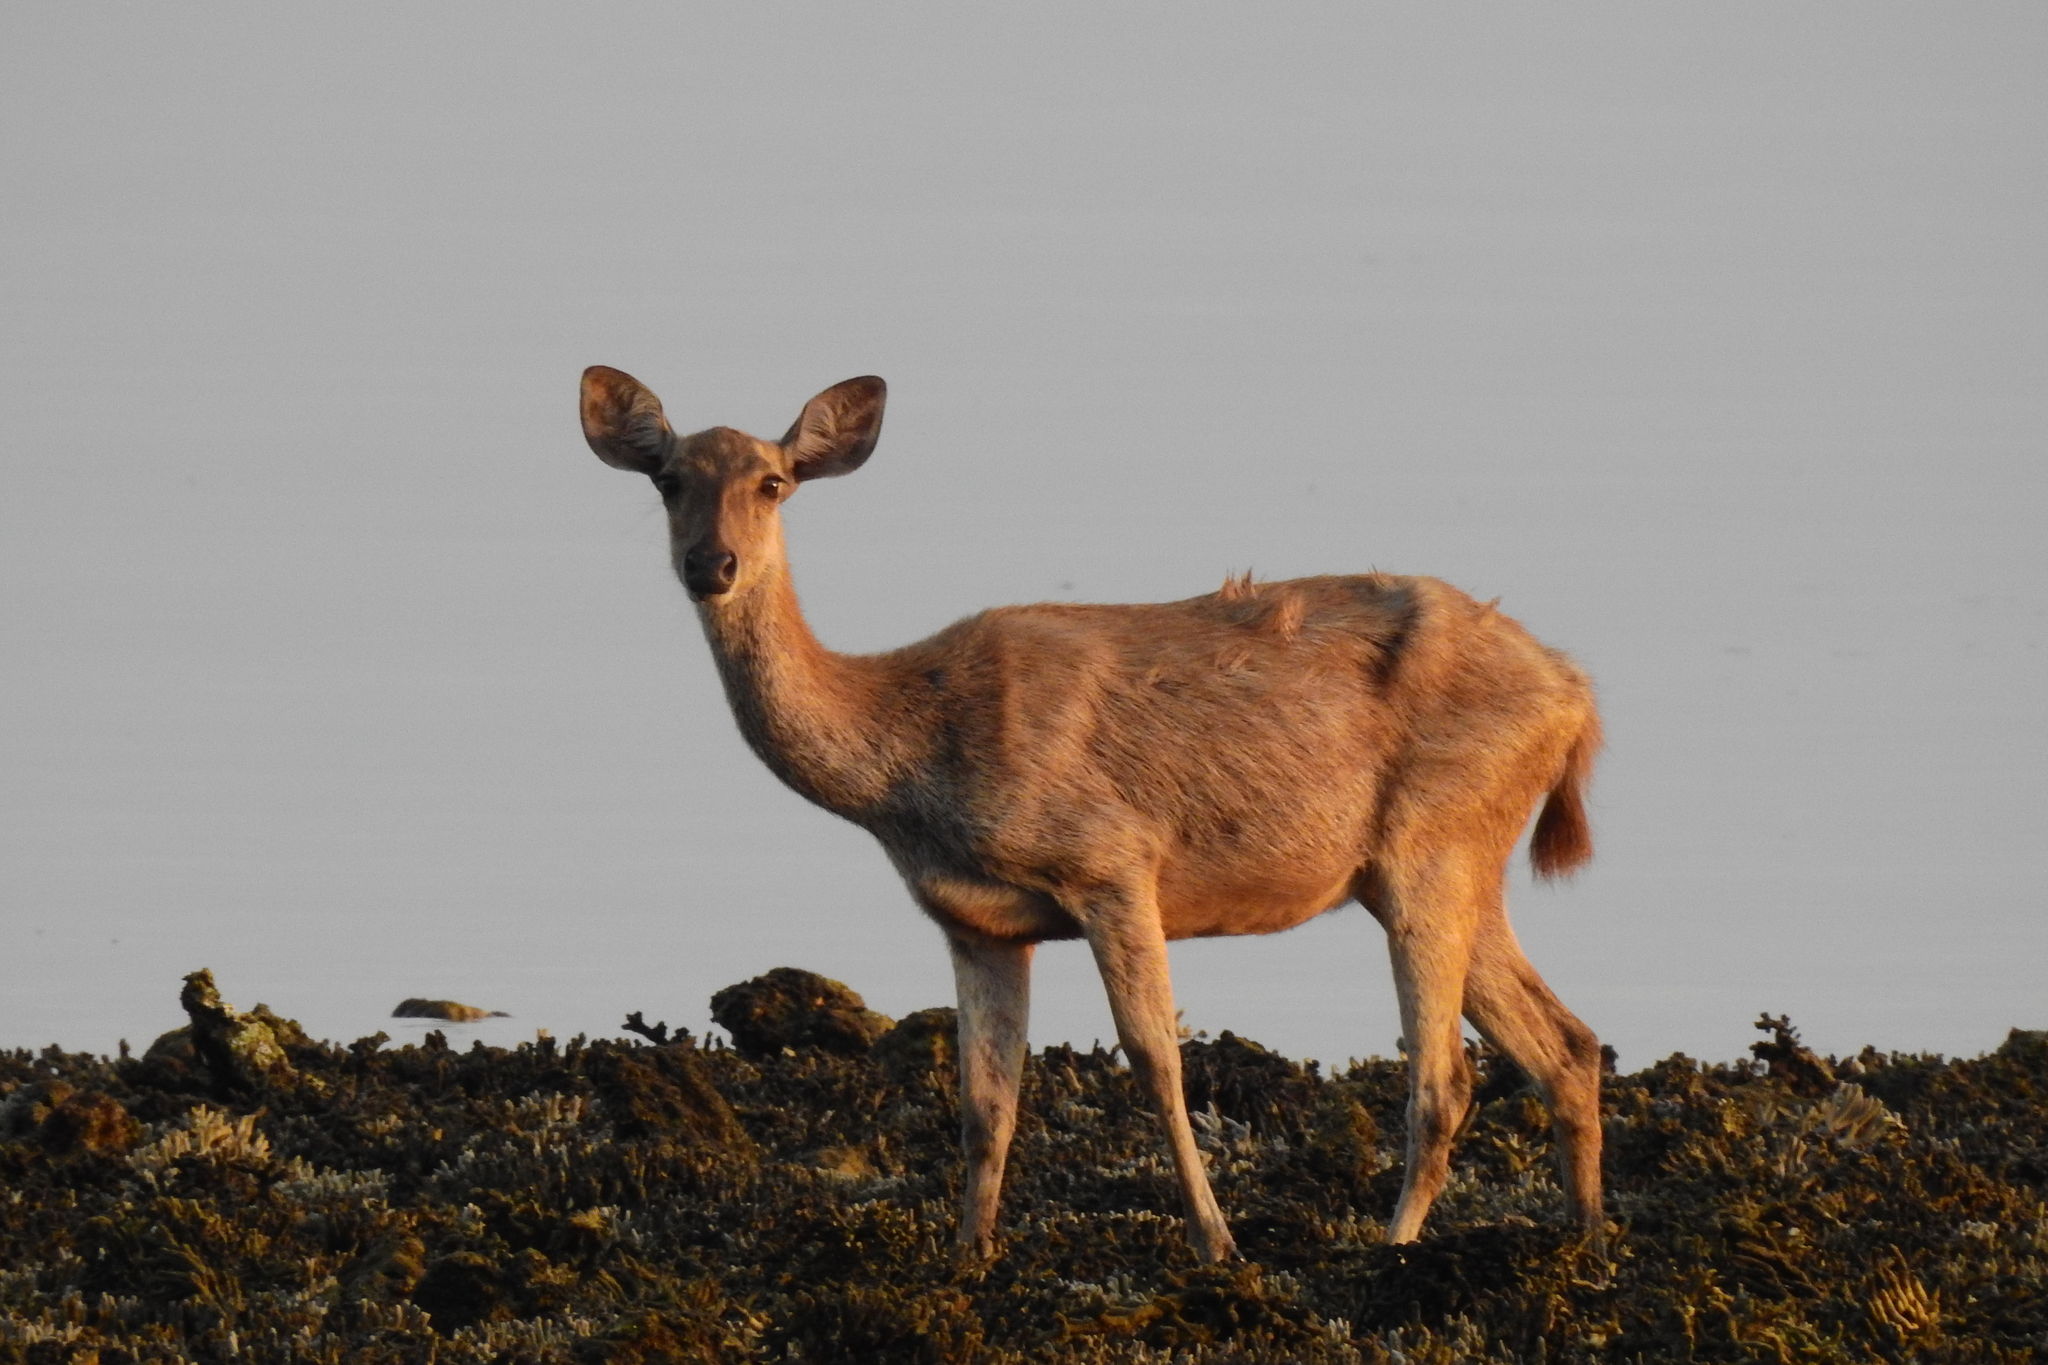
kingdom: Animalia
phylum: Chordata
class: Mammalia
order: Artiodactyla
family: Cervidae
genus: Rusa
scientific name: Rusa timorensis
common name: Javan rusa
